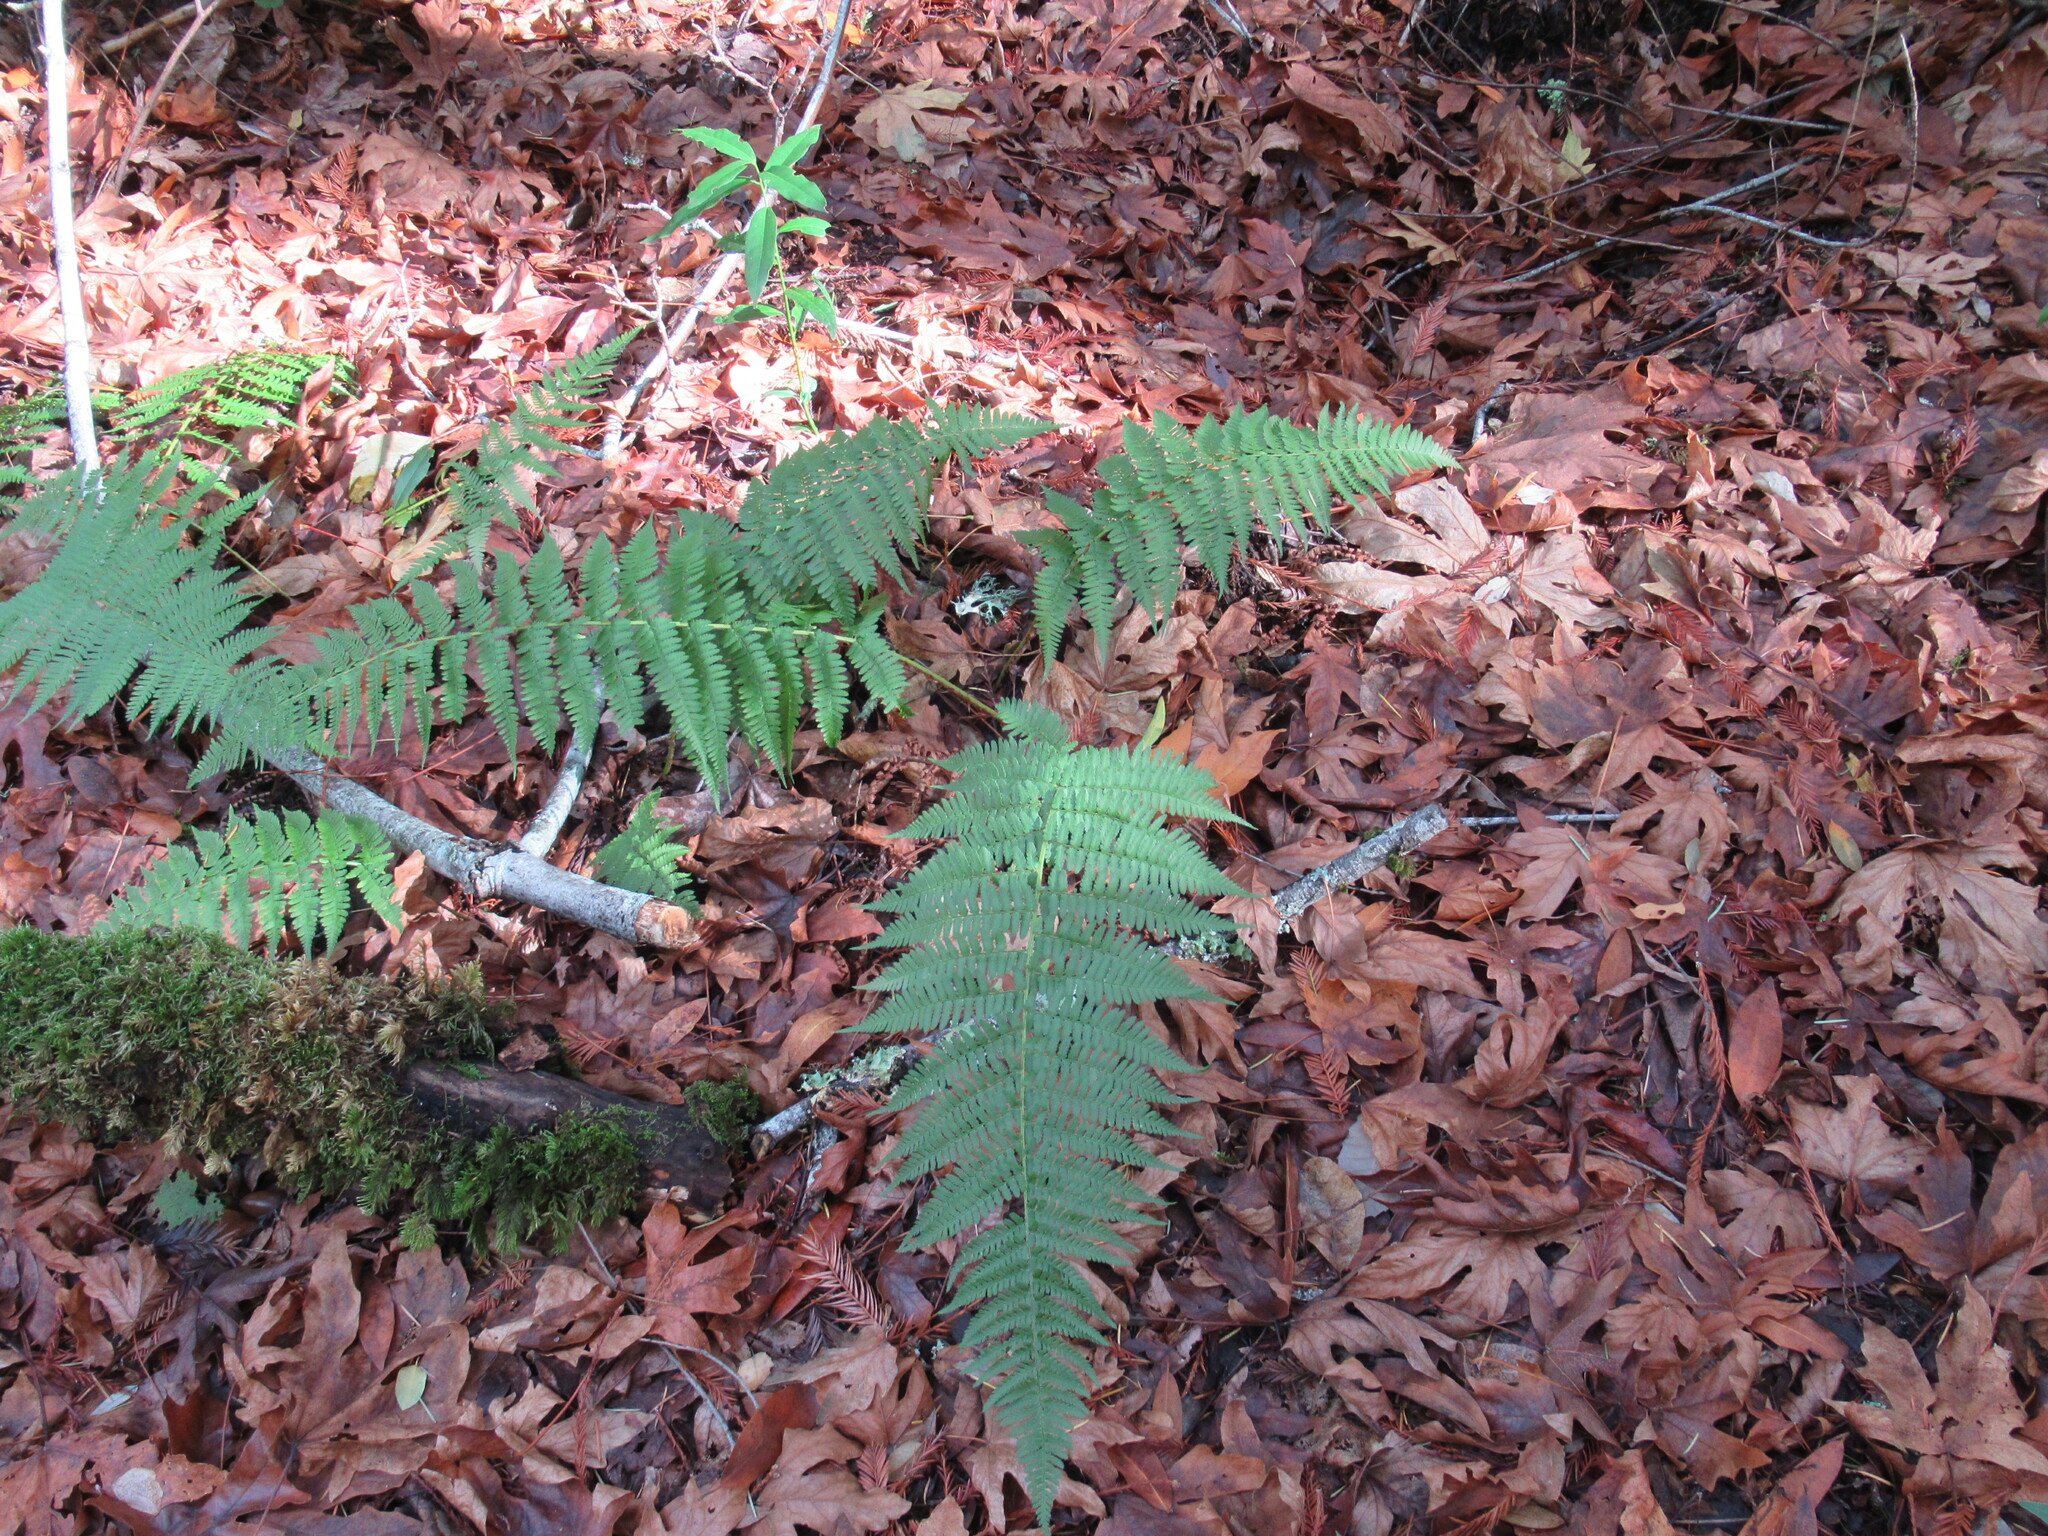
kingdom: Plantae
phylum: Tracheophyta
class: Polypodiopsida
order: Polypodiales
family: Dryopteridaceae
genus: Dryopteris
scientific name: Dryopteris arguta
